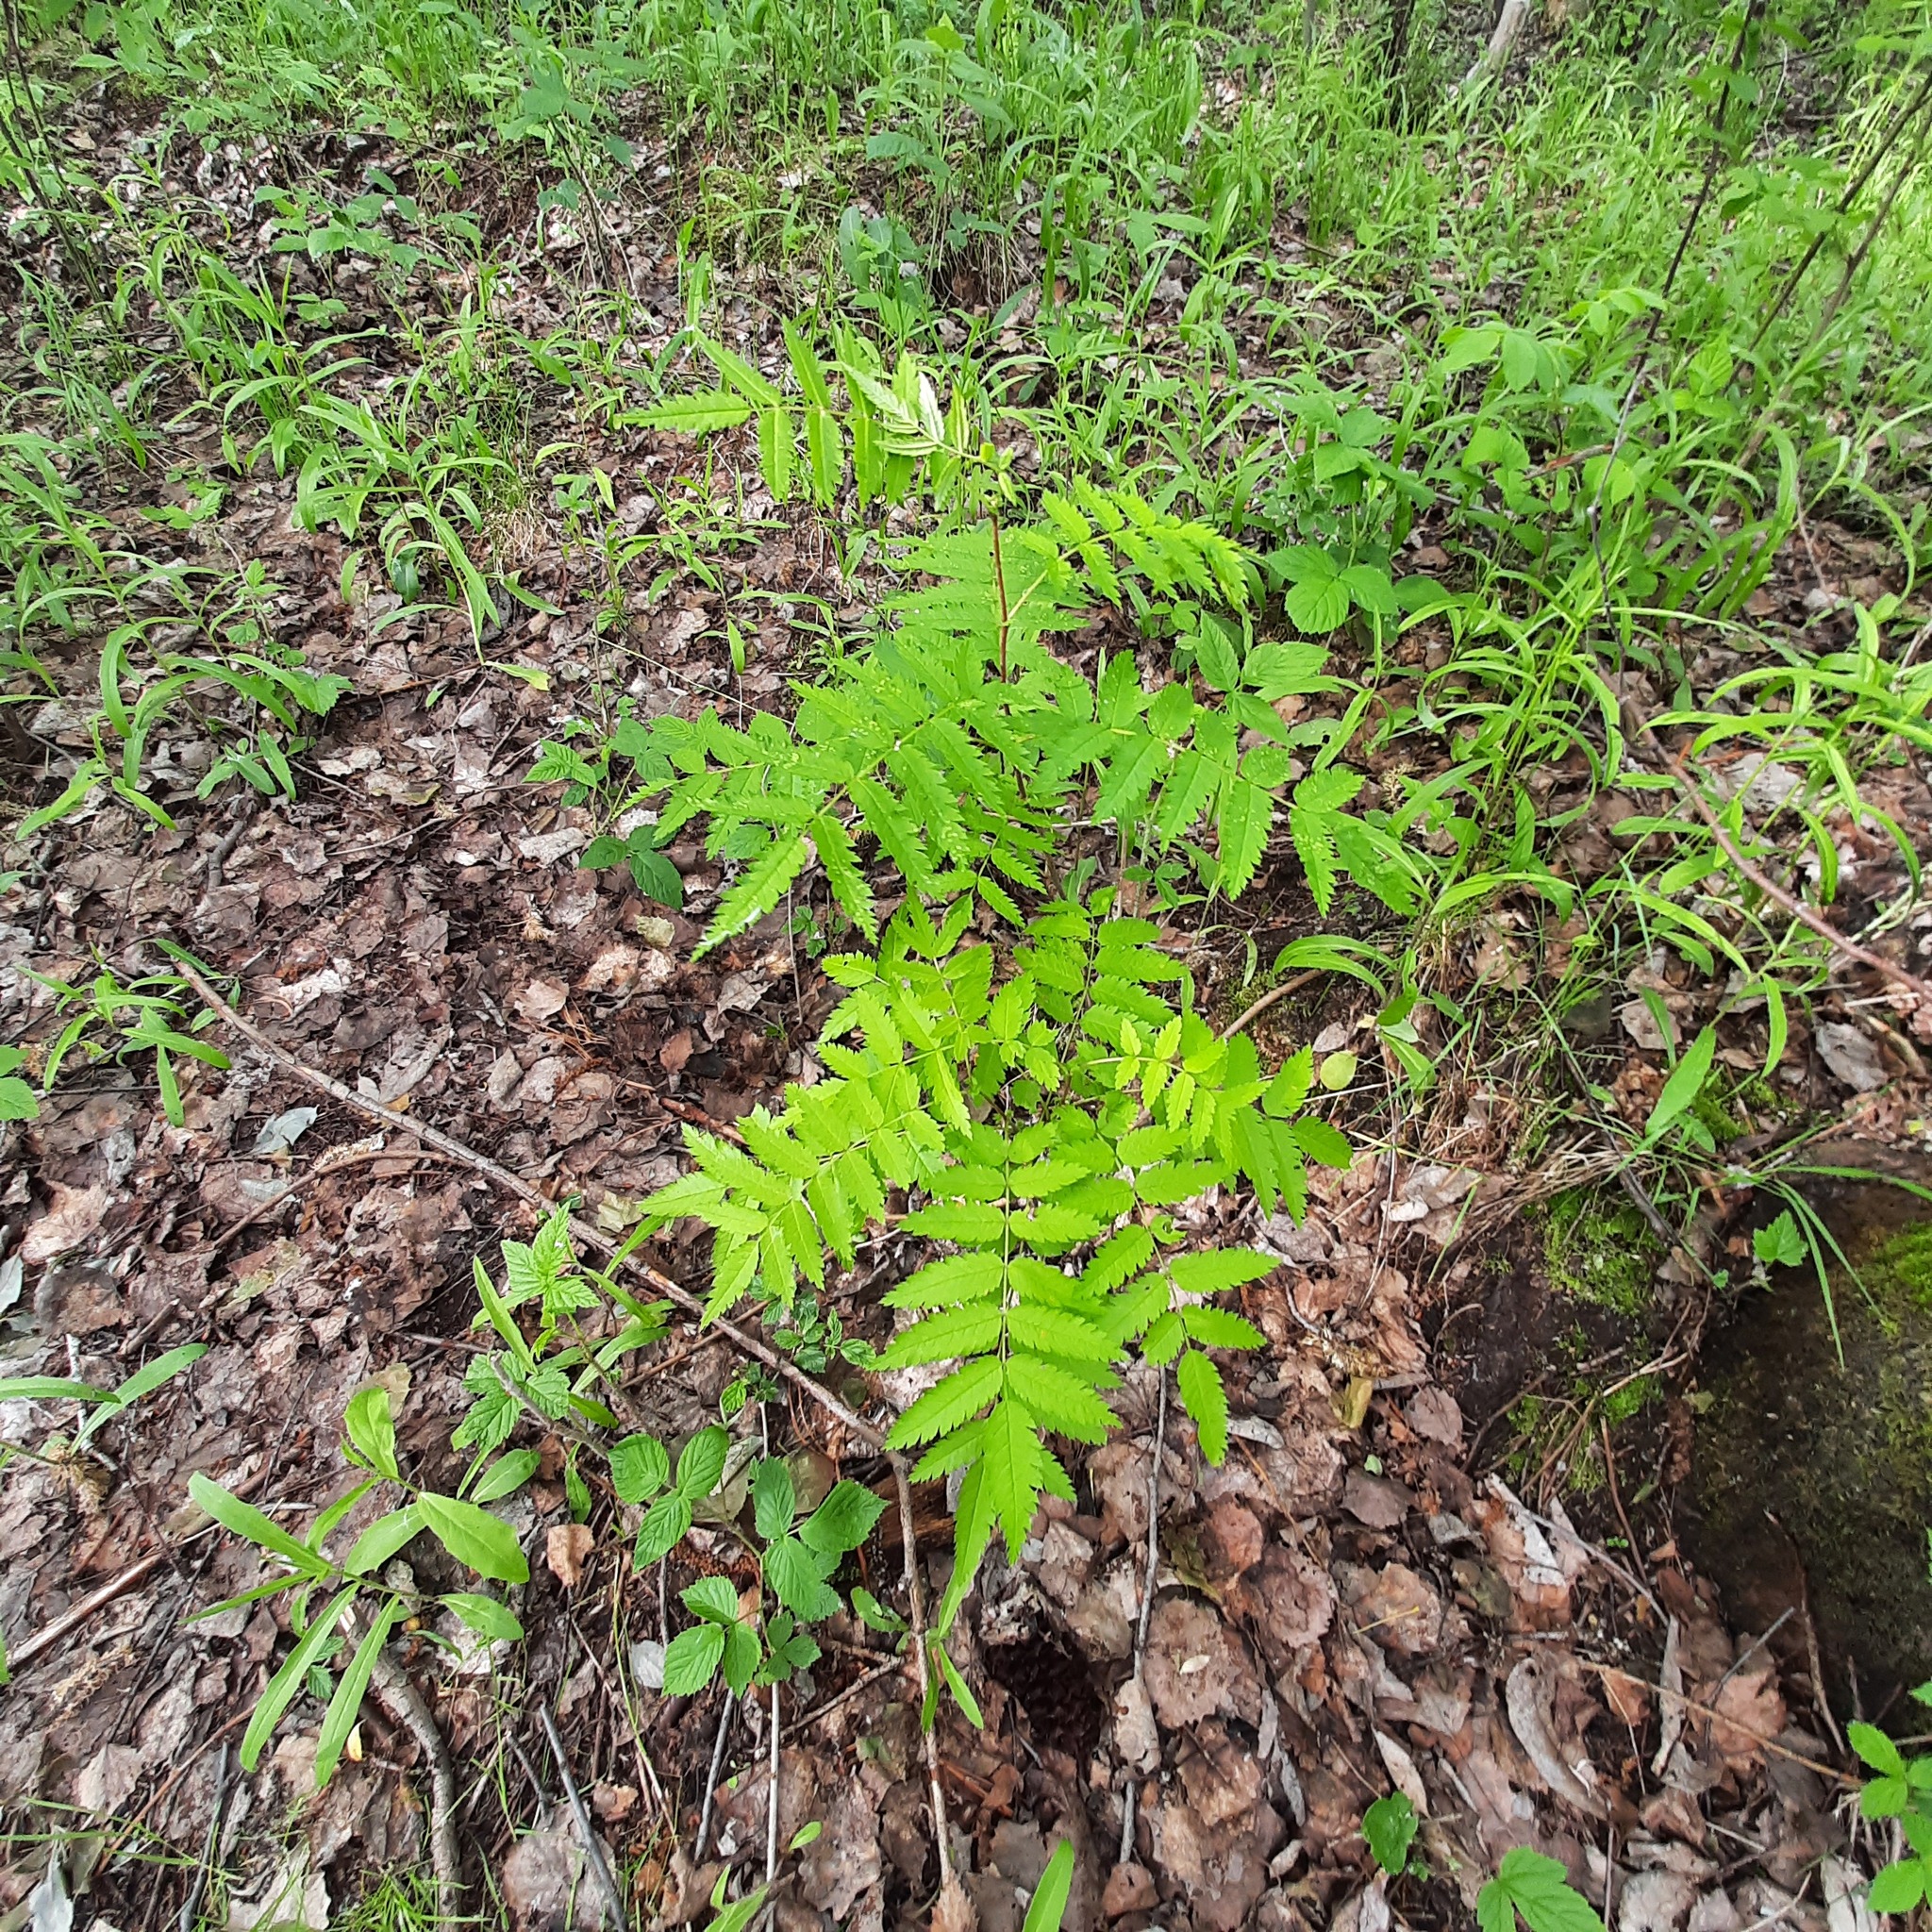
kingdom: Plantae
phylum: Tracheophyta
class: Magnoliopsida
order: Rosales
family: Rosaceae
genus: Sorbus
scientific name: Sorbus aucuparia
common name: Rowan
